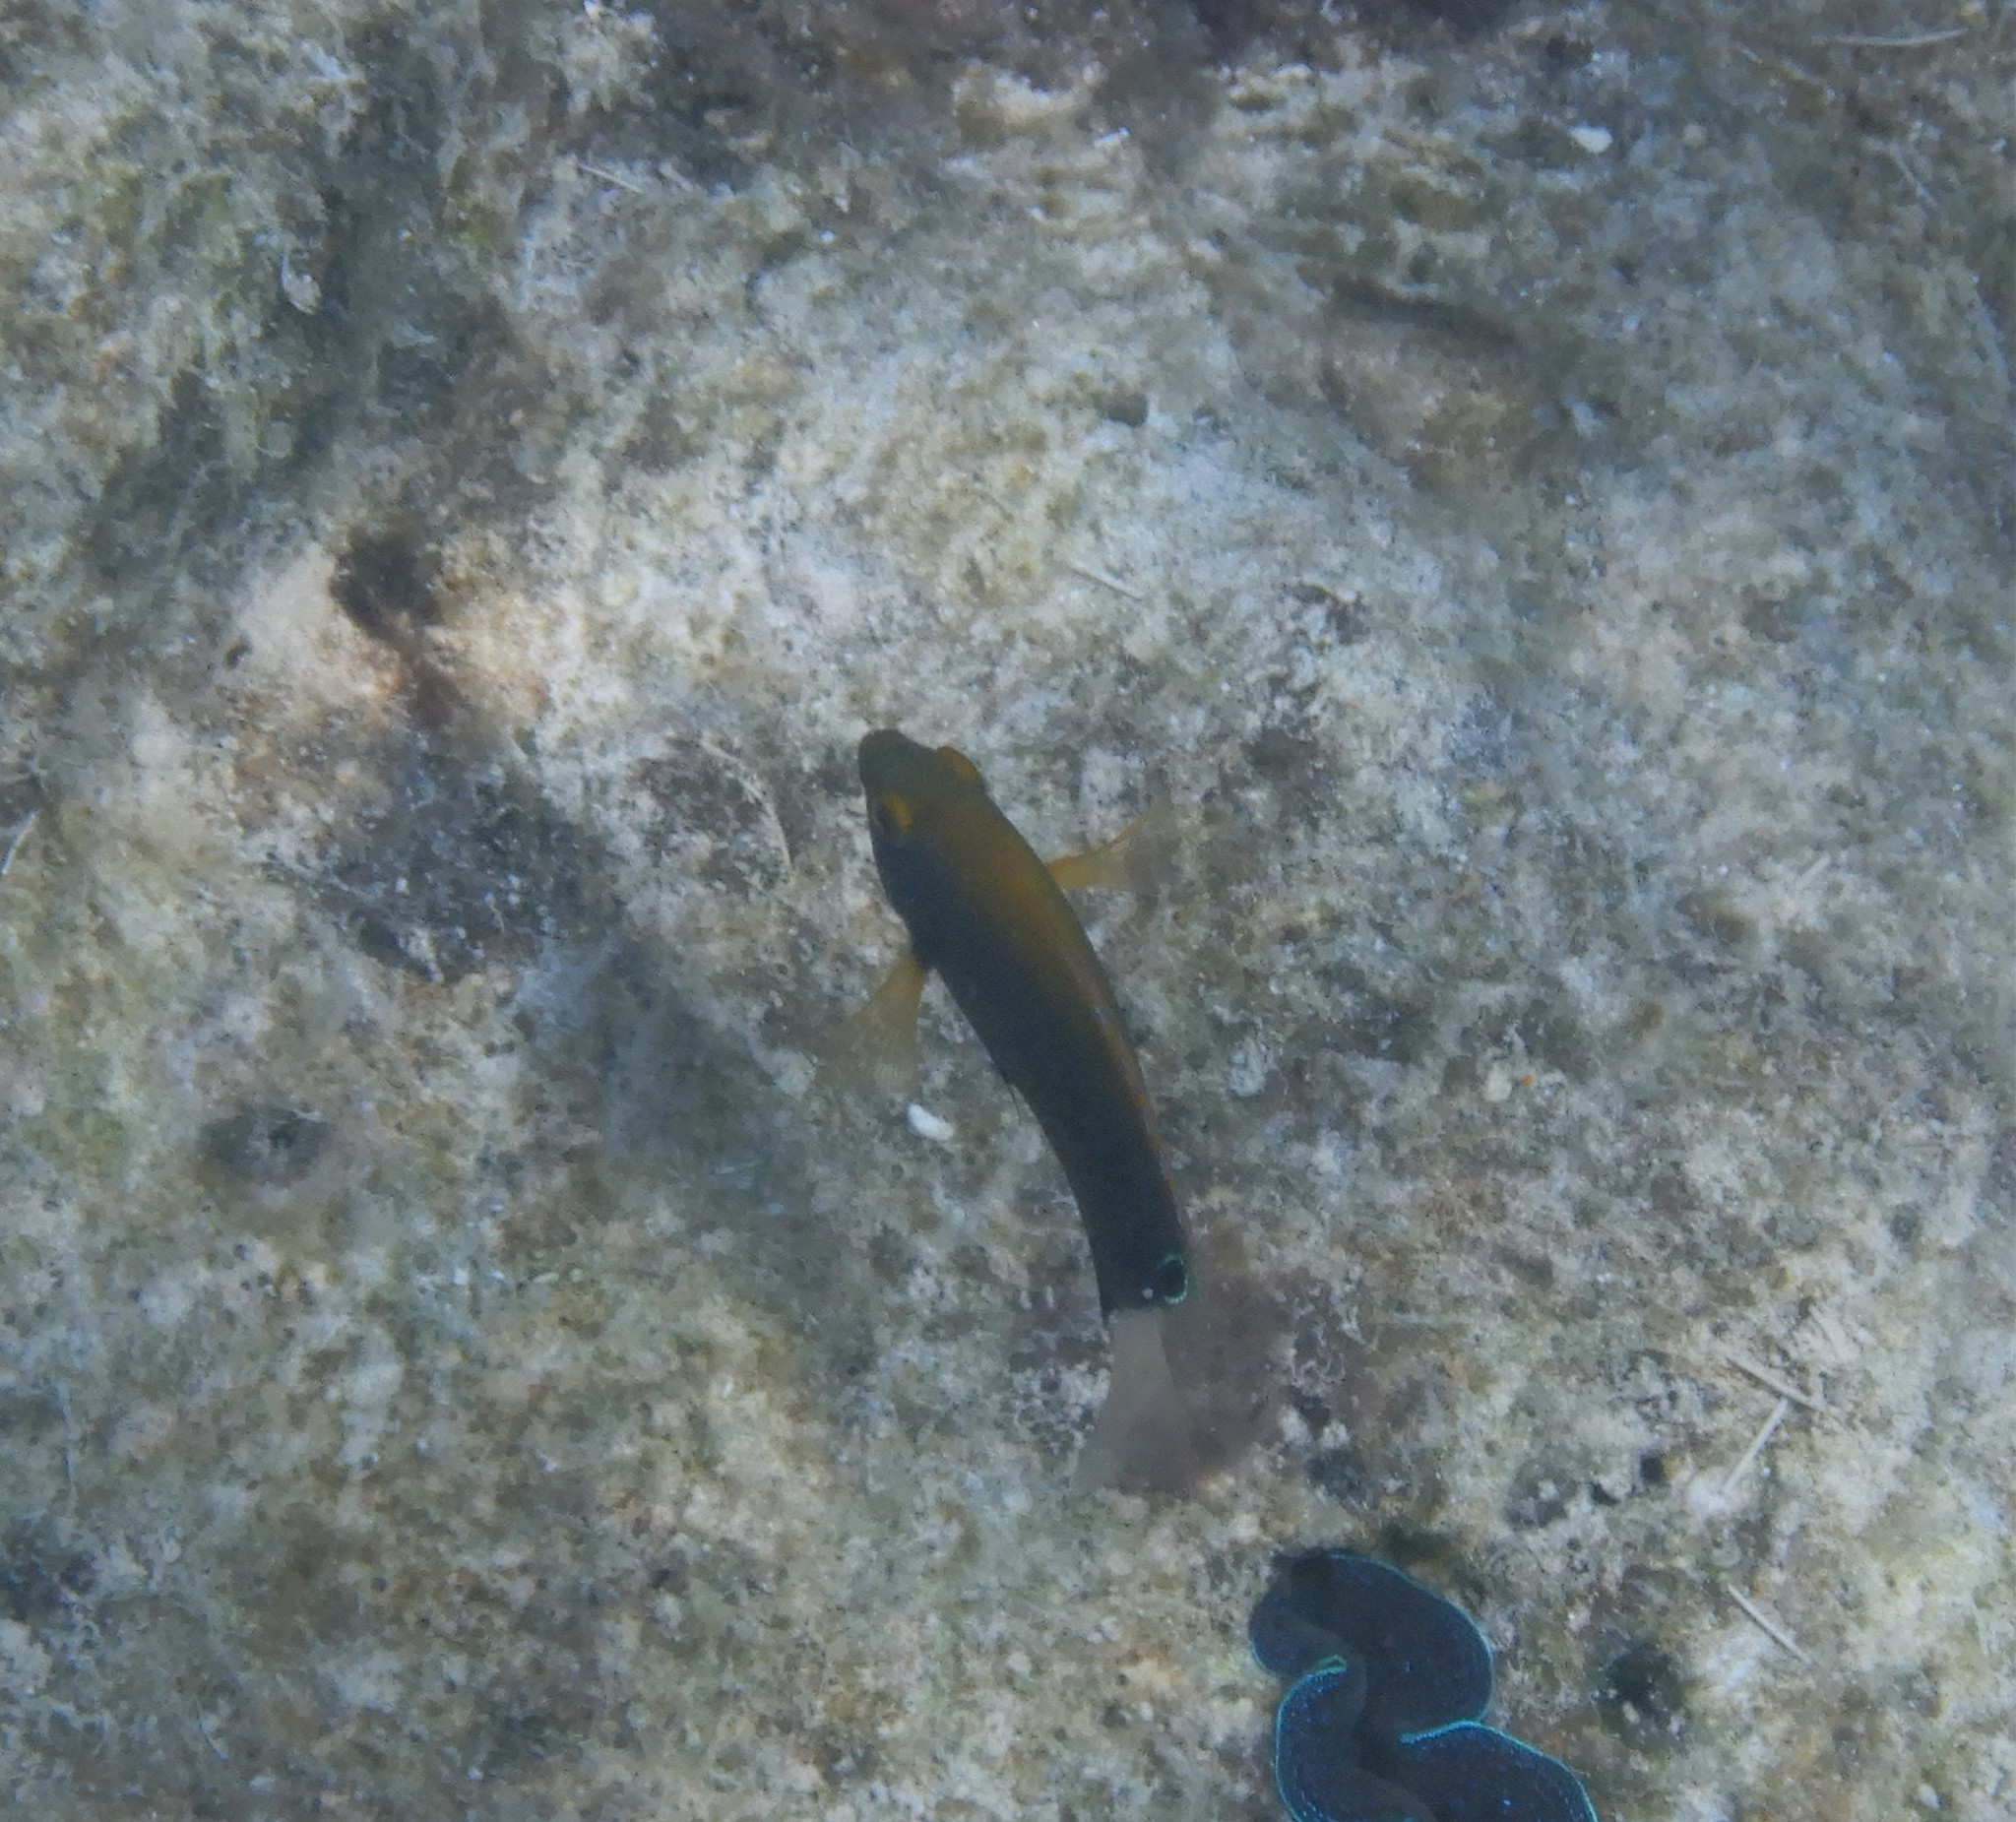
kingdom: Animalia
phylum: Chordata
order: Perciformes
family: Pomacentridae
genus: Pomacentrus
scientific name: Pomacentrus chrysurus
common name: White-tail damsel
